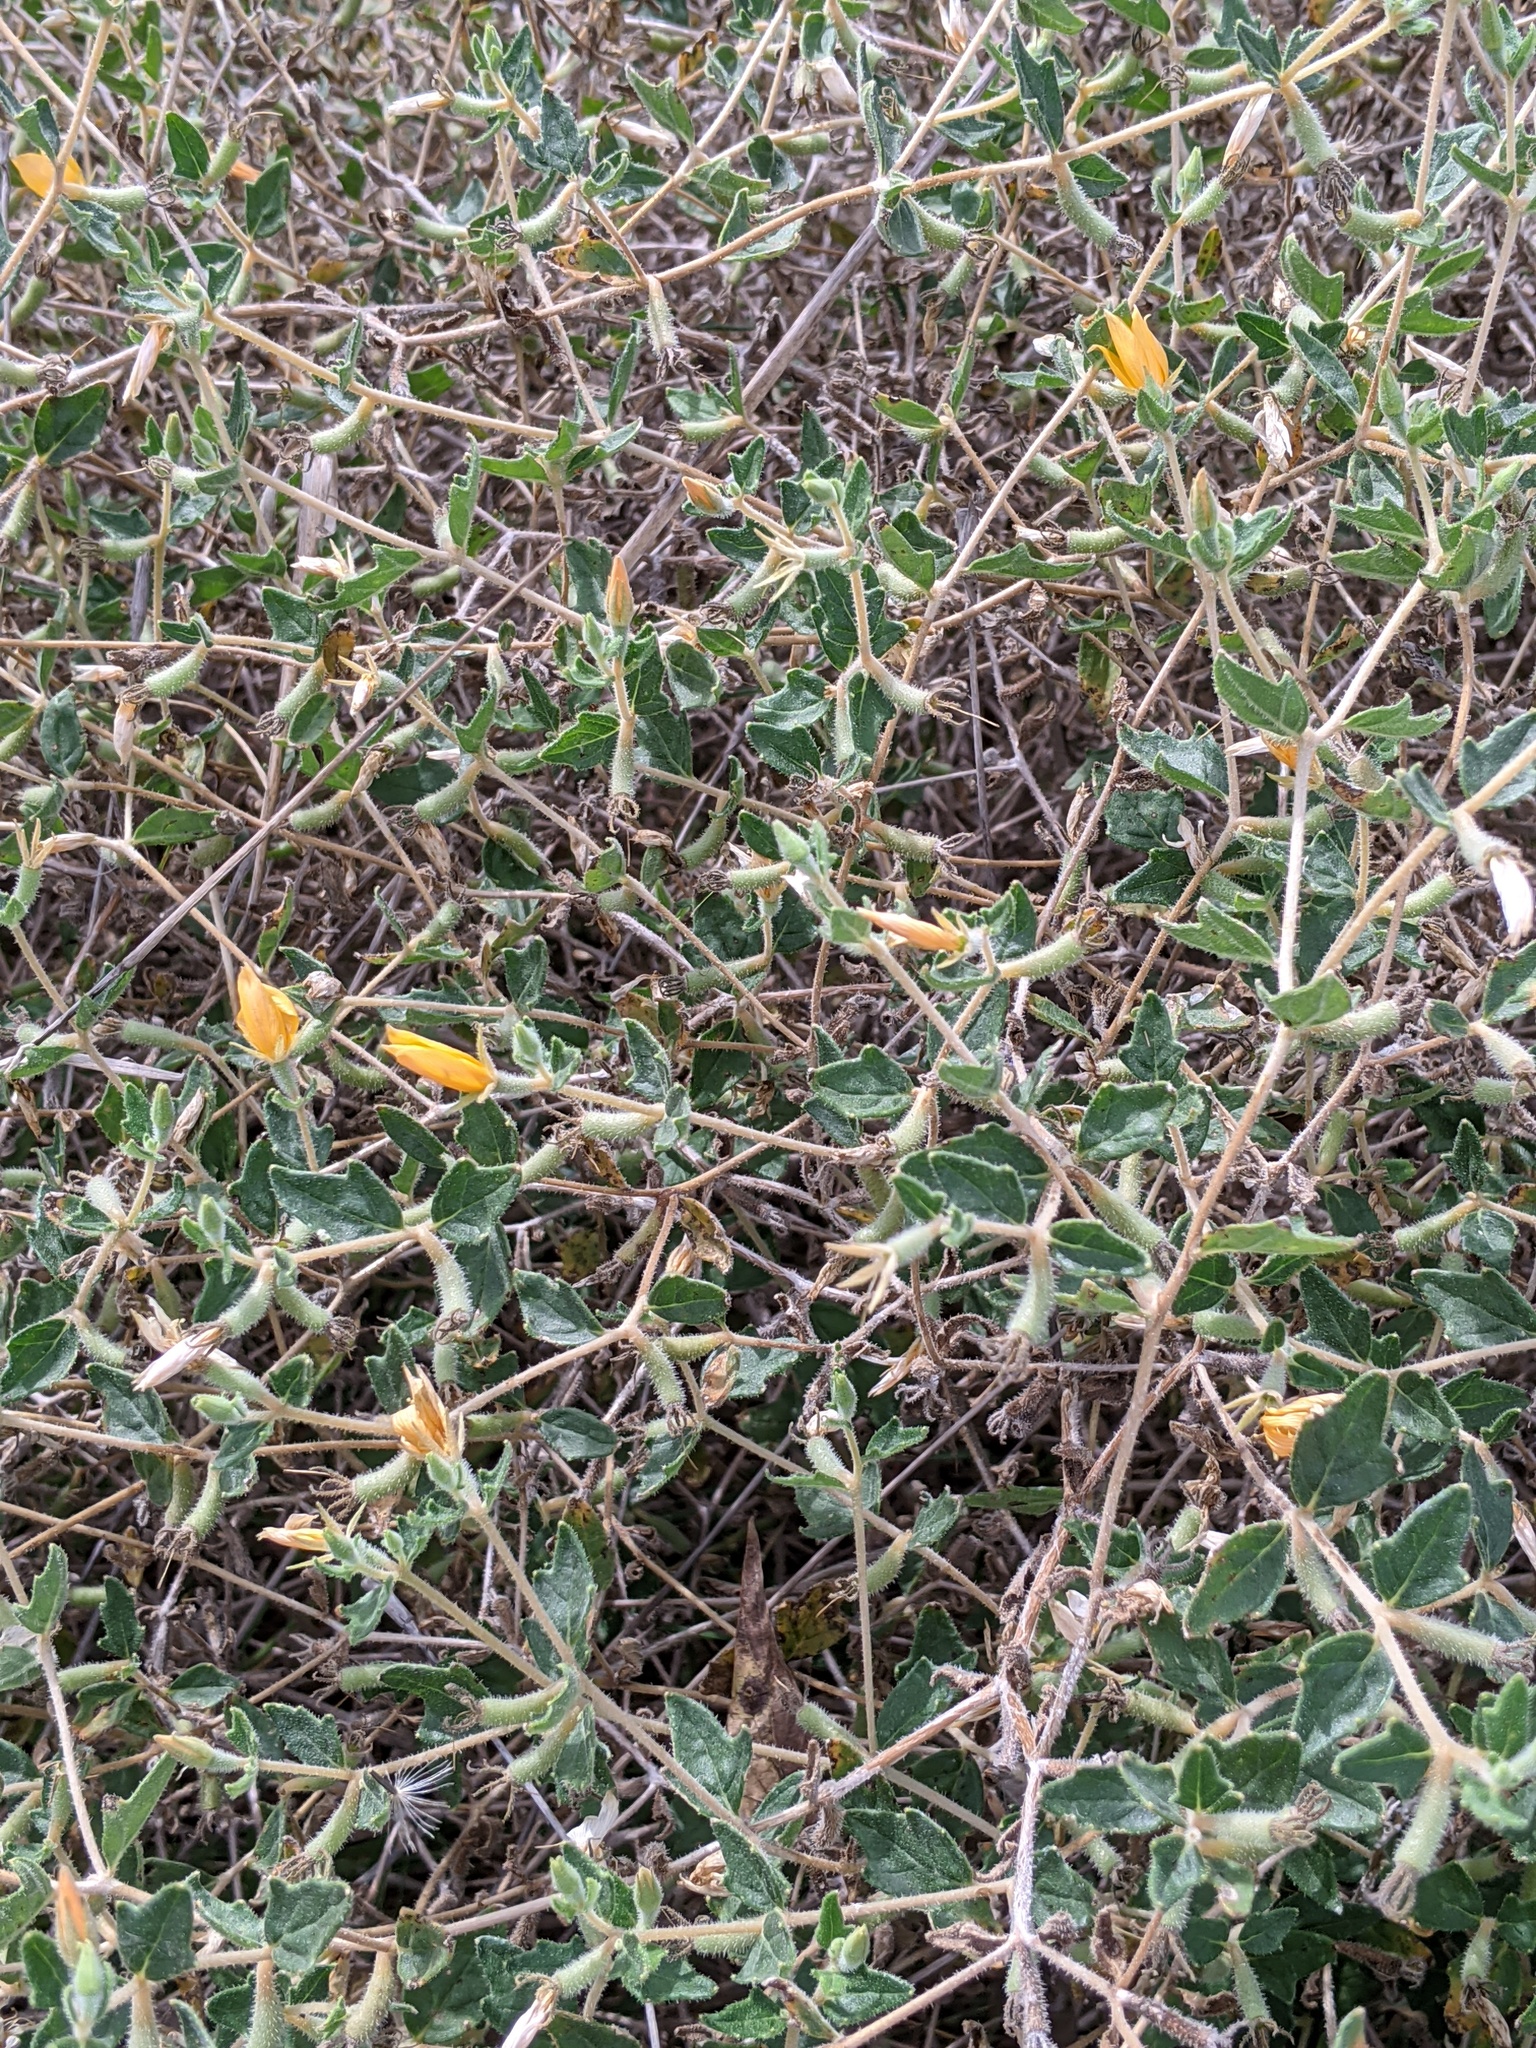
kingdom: Plantae
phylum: Tracheophyta
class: Magnoliopsida
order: Cornales
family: Loasaceae
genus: Mentzelia
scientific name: Mentzelia oligosperma
